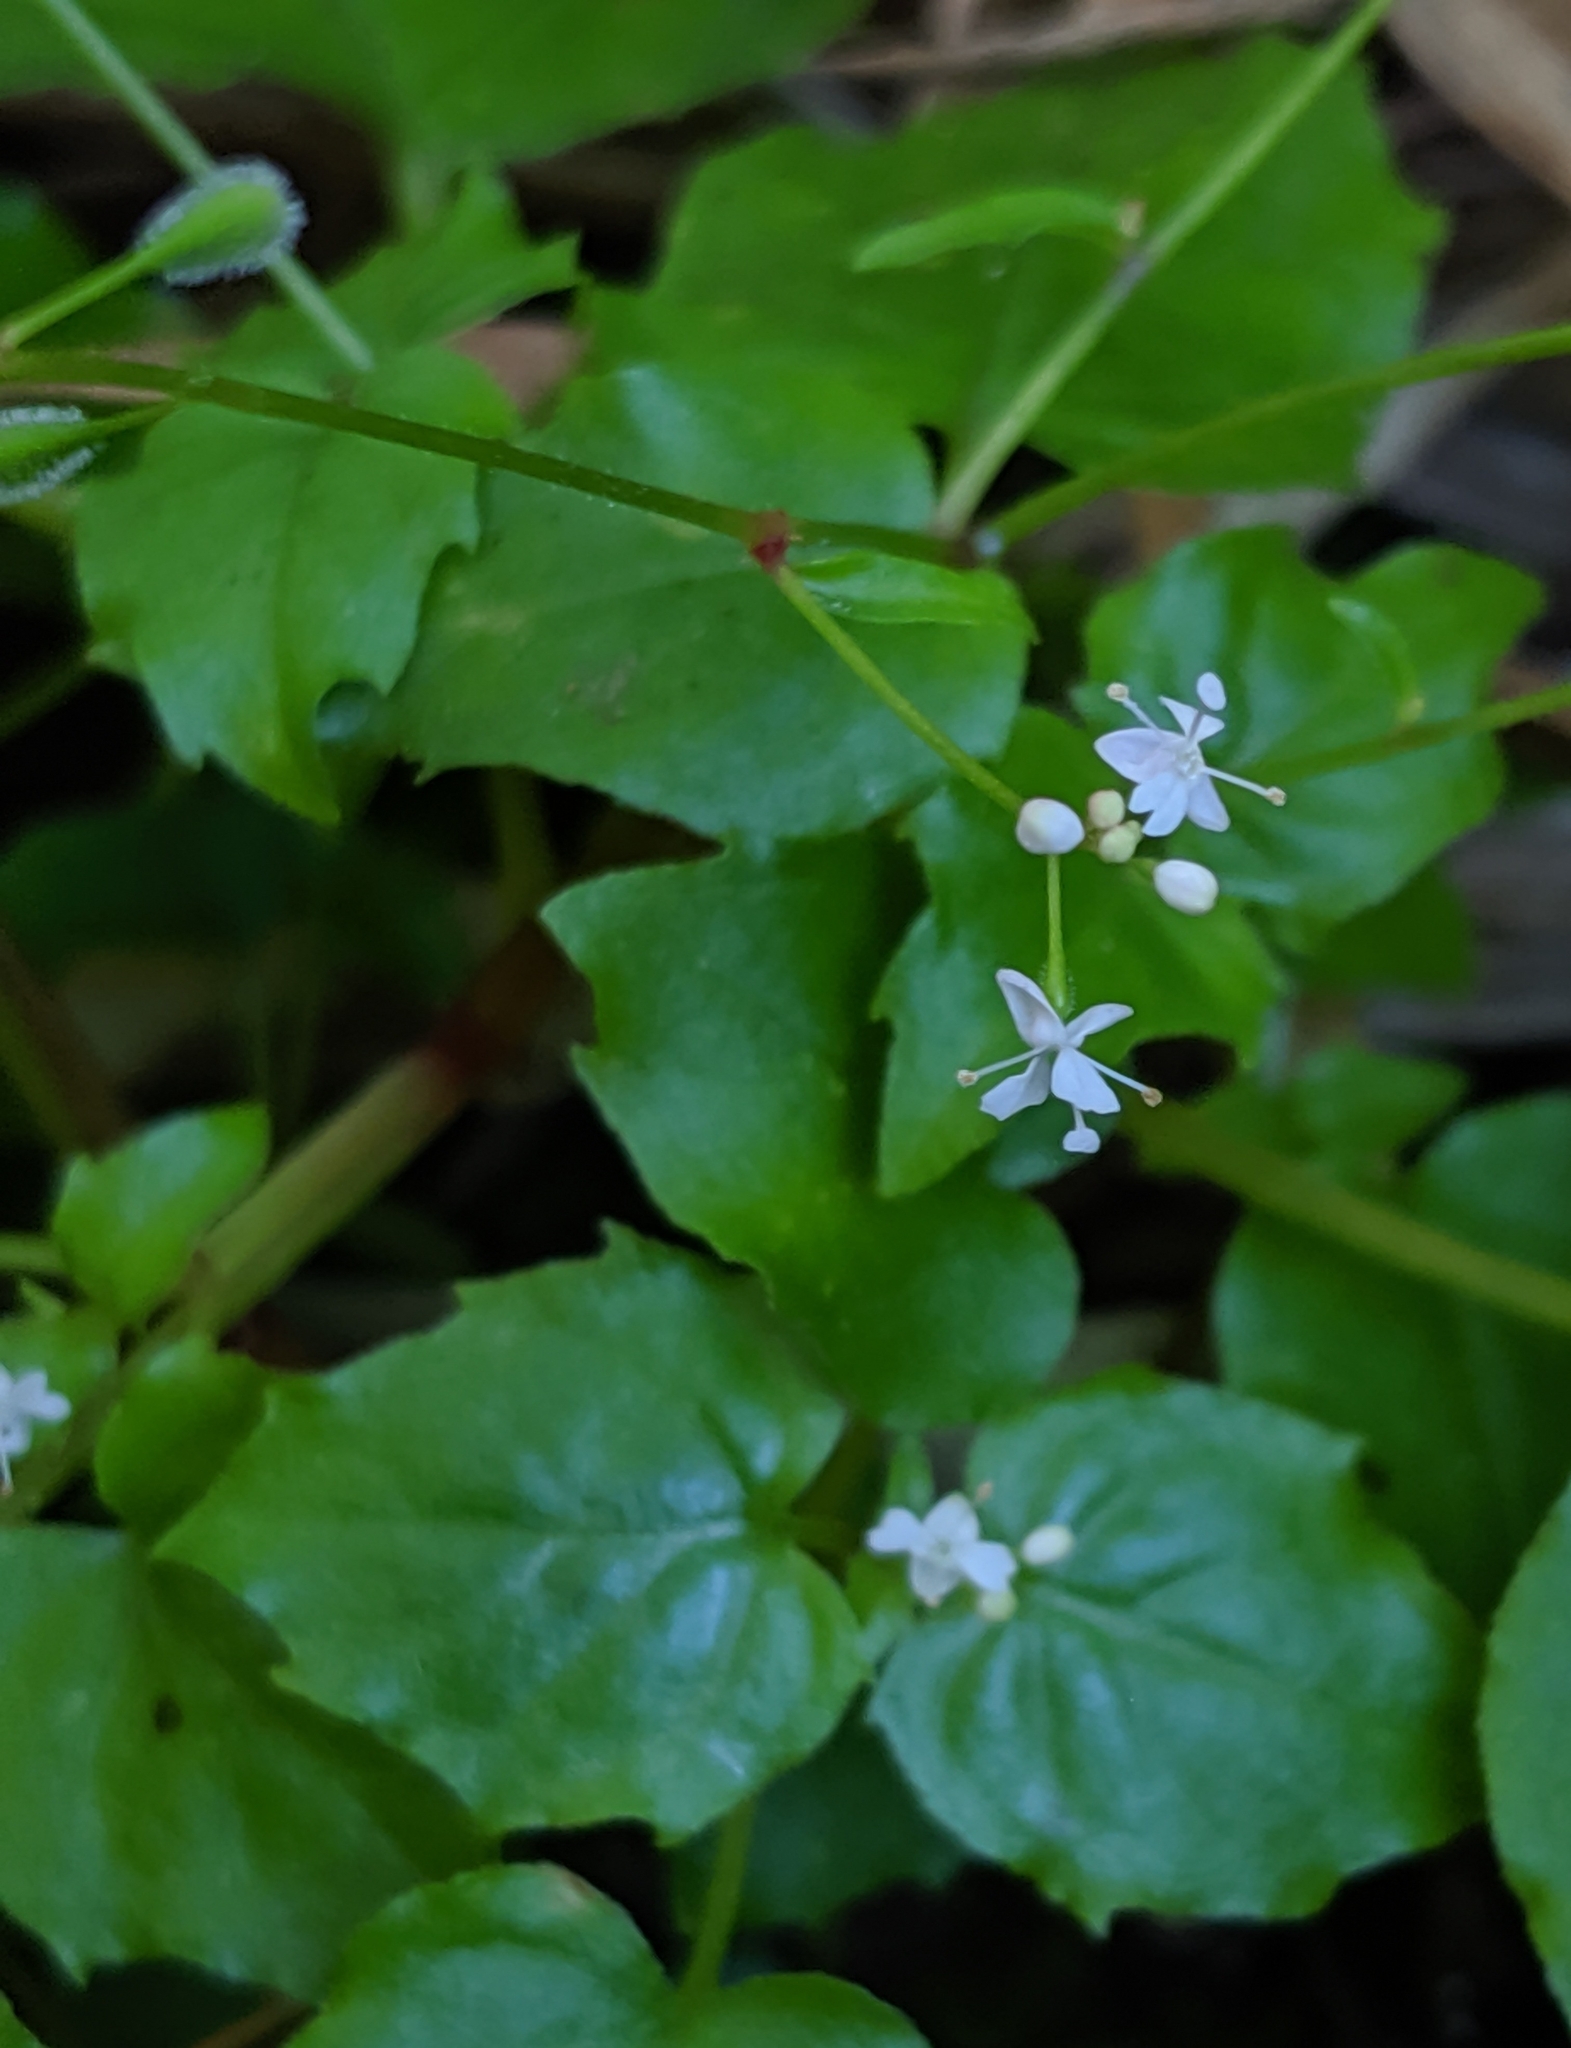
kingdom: Plantae
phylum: Tracheophyta
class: Magnoliopsida
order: Myrtales
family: Onagraceae
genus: Circaea
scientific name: Circaea alpina
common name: Alpine enchanter's-nightshade
